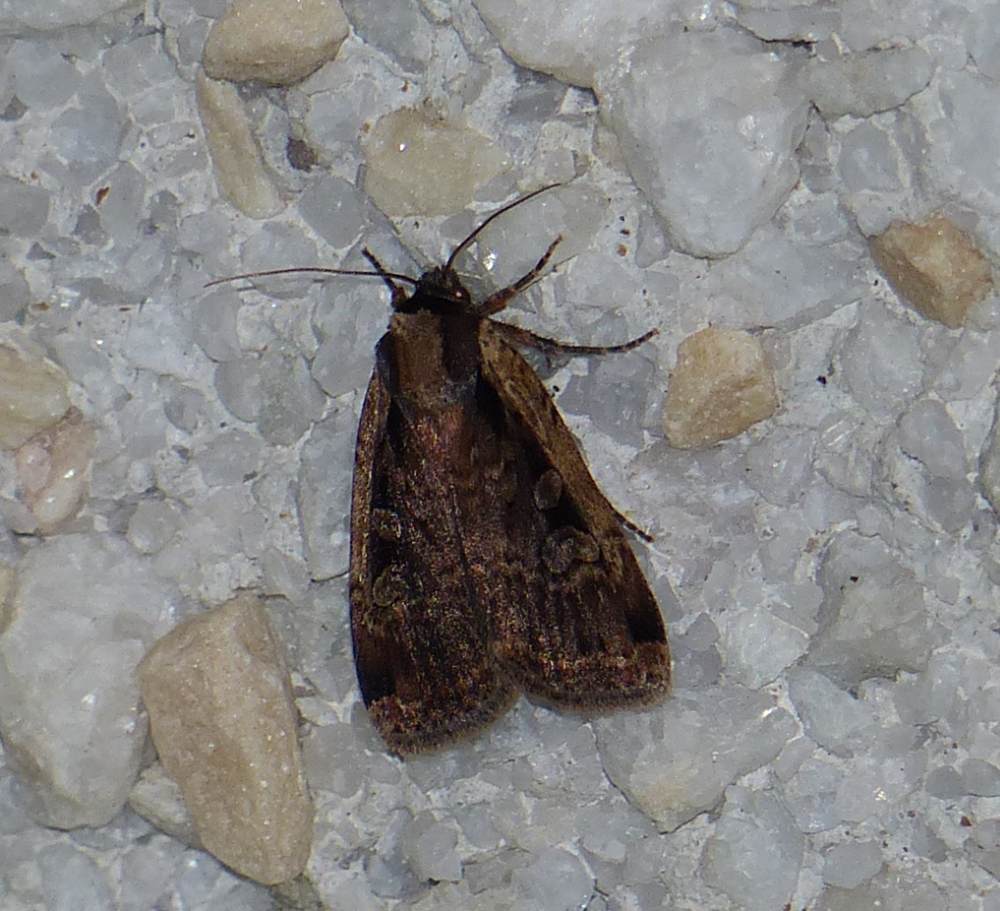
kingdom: Animalia
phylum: Arthropoda
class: Insecta
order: Lepidoptera
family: Noctuidae
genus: Eueretagrotis
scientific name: Eueretagrotis sigmoides
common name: Sigmoid dart
